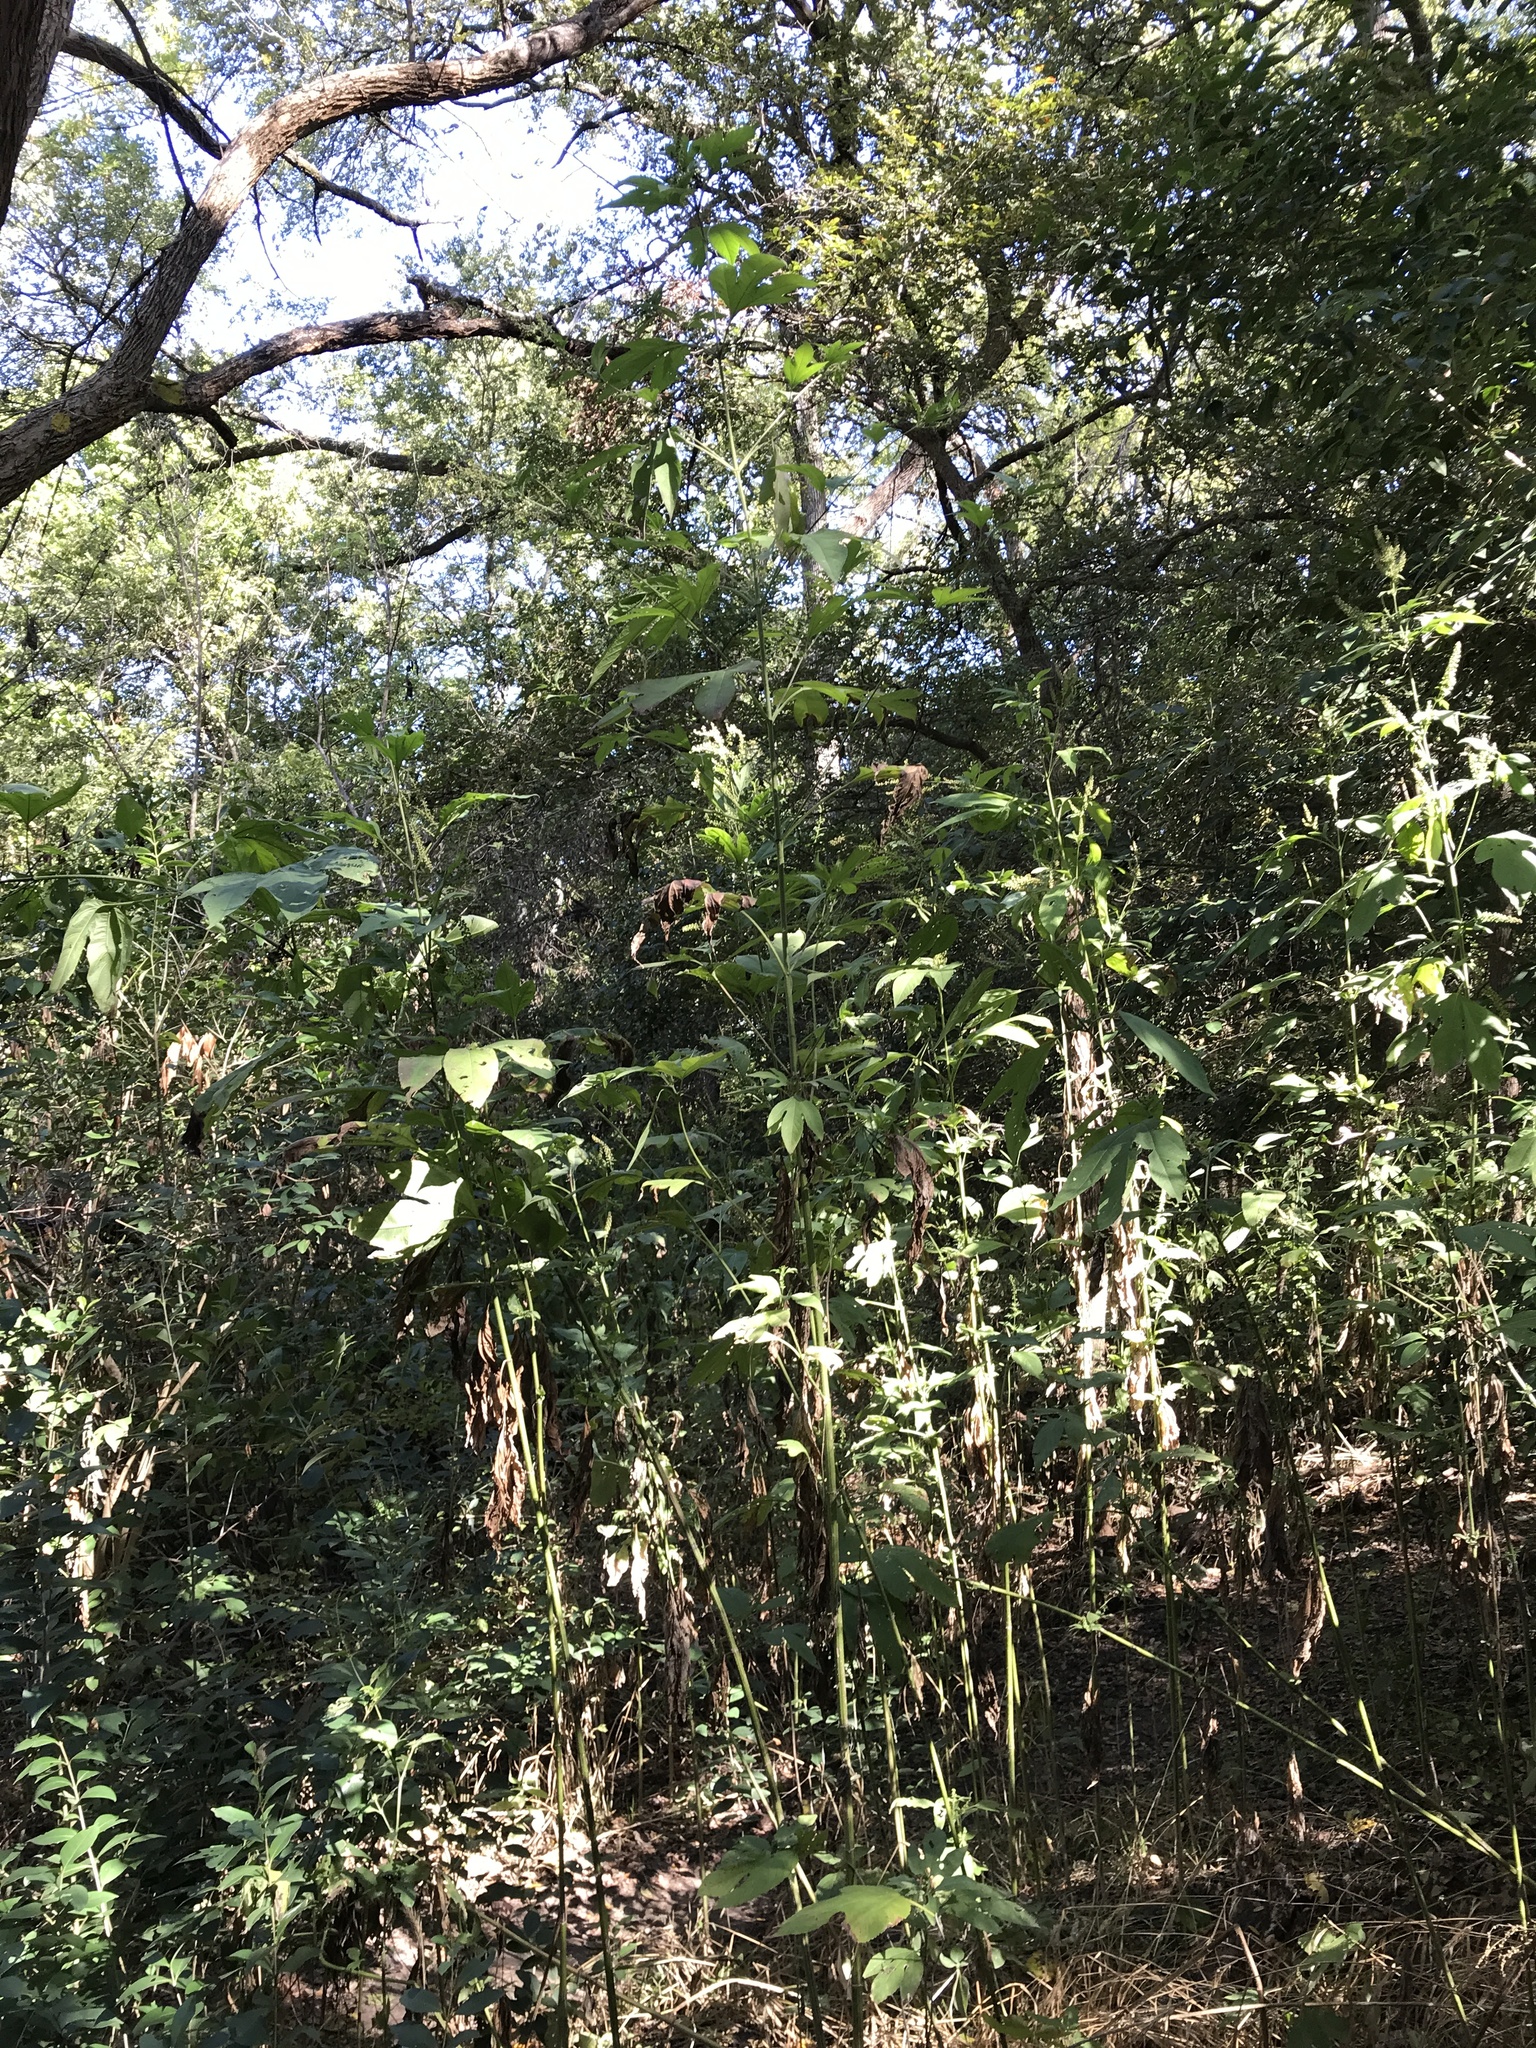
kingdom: Plantae
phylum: Tracheophyta
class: Magnoliopsida
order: Asterales
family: Asteraceae
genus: Ambrosia
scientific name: Ambrosia trifida
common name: Giant ragweed
